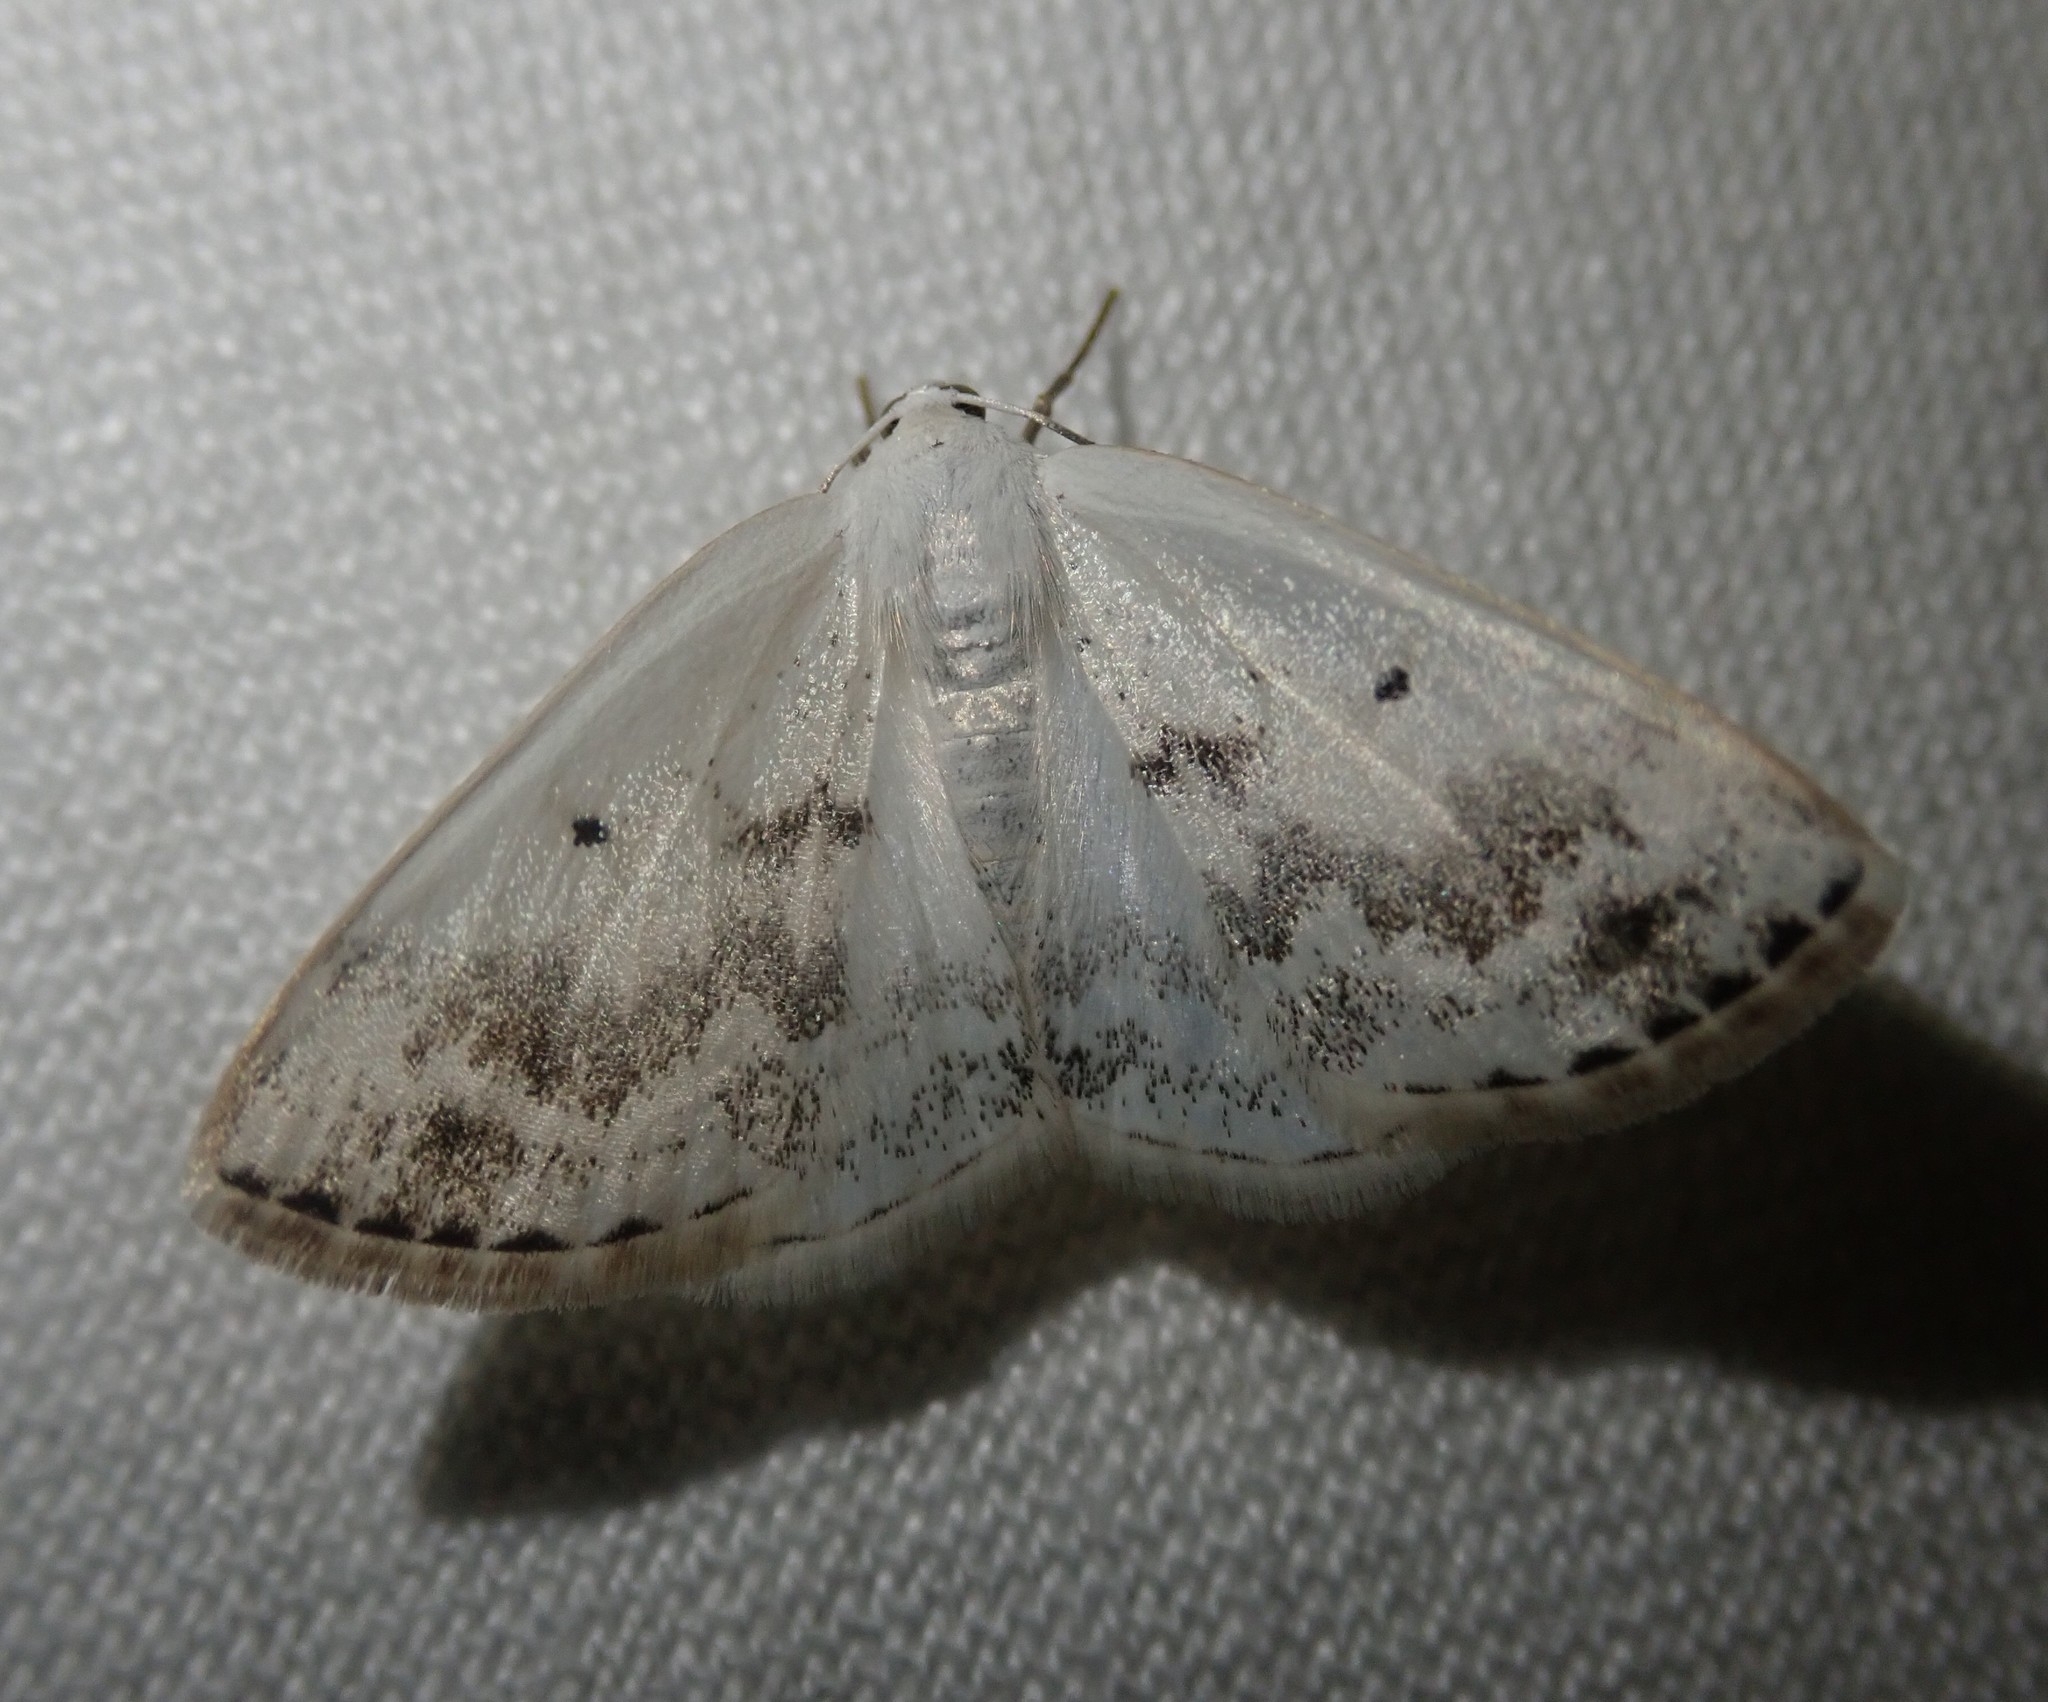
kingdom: Animalia
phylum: Arthropoda
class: Insecta
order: Lepidoptera
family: Geometridae
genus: Lomographa
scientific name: Lomographa temerata
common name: Clouded silver
